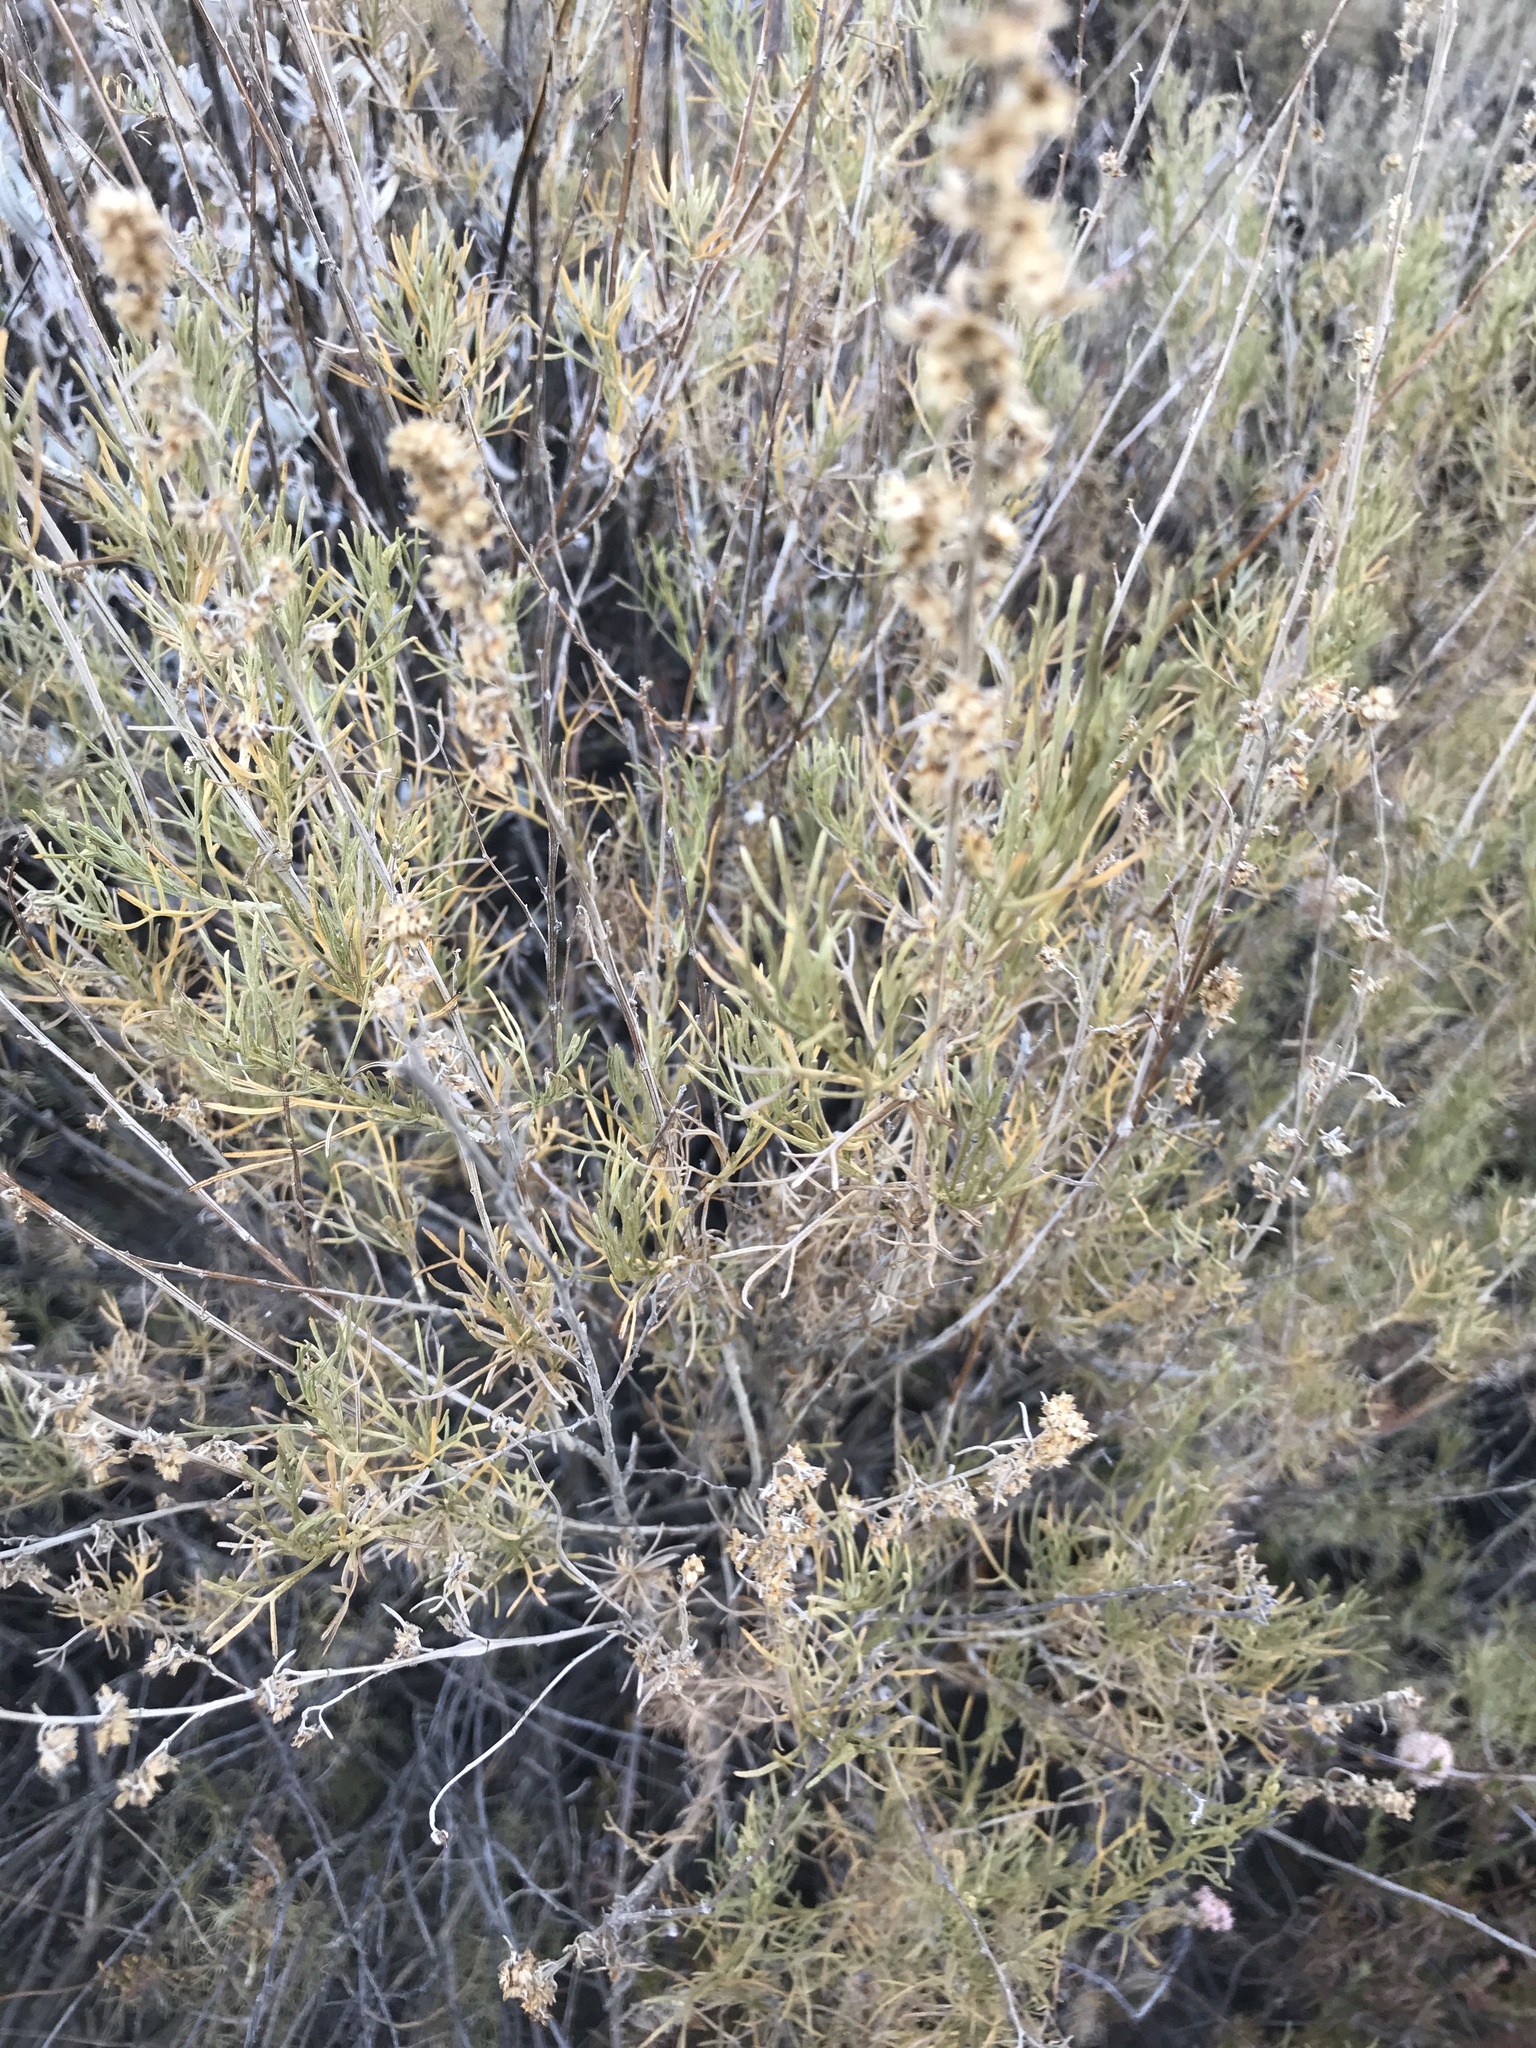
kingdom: Plantae
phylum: Tracheophyta
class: Magnoliopsida
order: Asterales
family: Asteraceae
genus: Artemisia
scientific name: Artemisia californica
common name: California sagebrush
